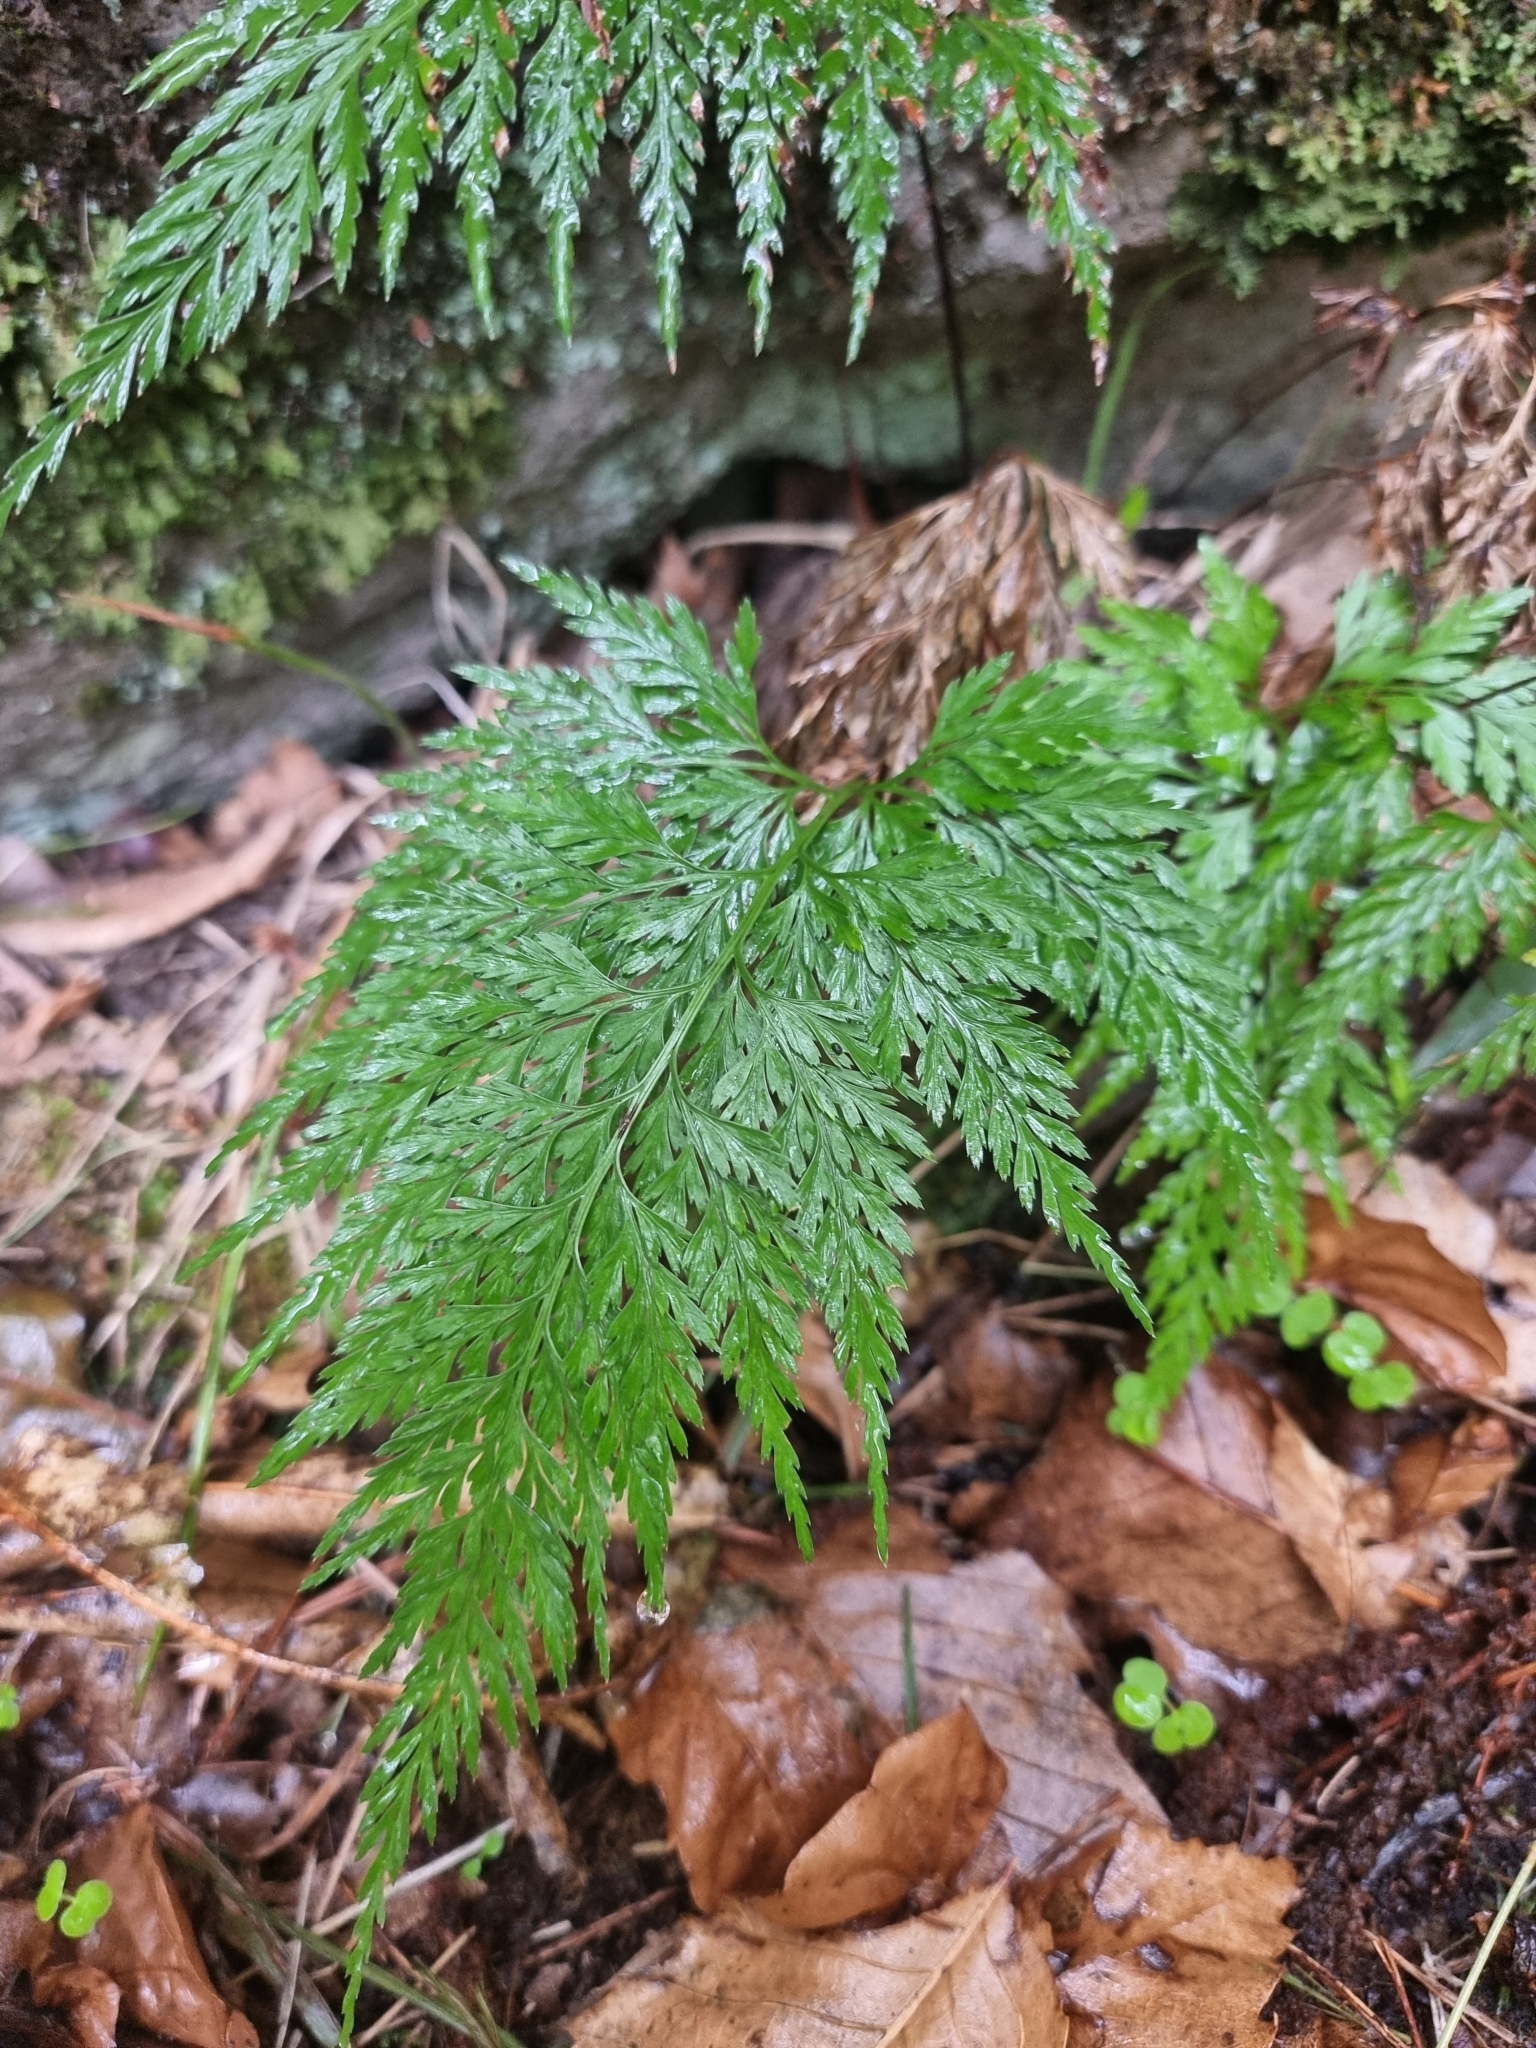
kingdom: Plantae
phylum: Tracheophyta
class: Polypodiopsida
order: Polypodiales
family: Aspleniaceae
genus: Asplenium
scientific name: Asplenium onopteris
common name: Irish spleenwort
